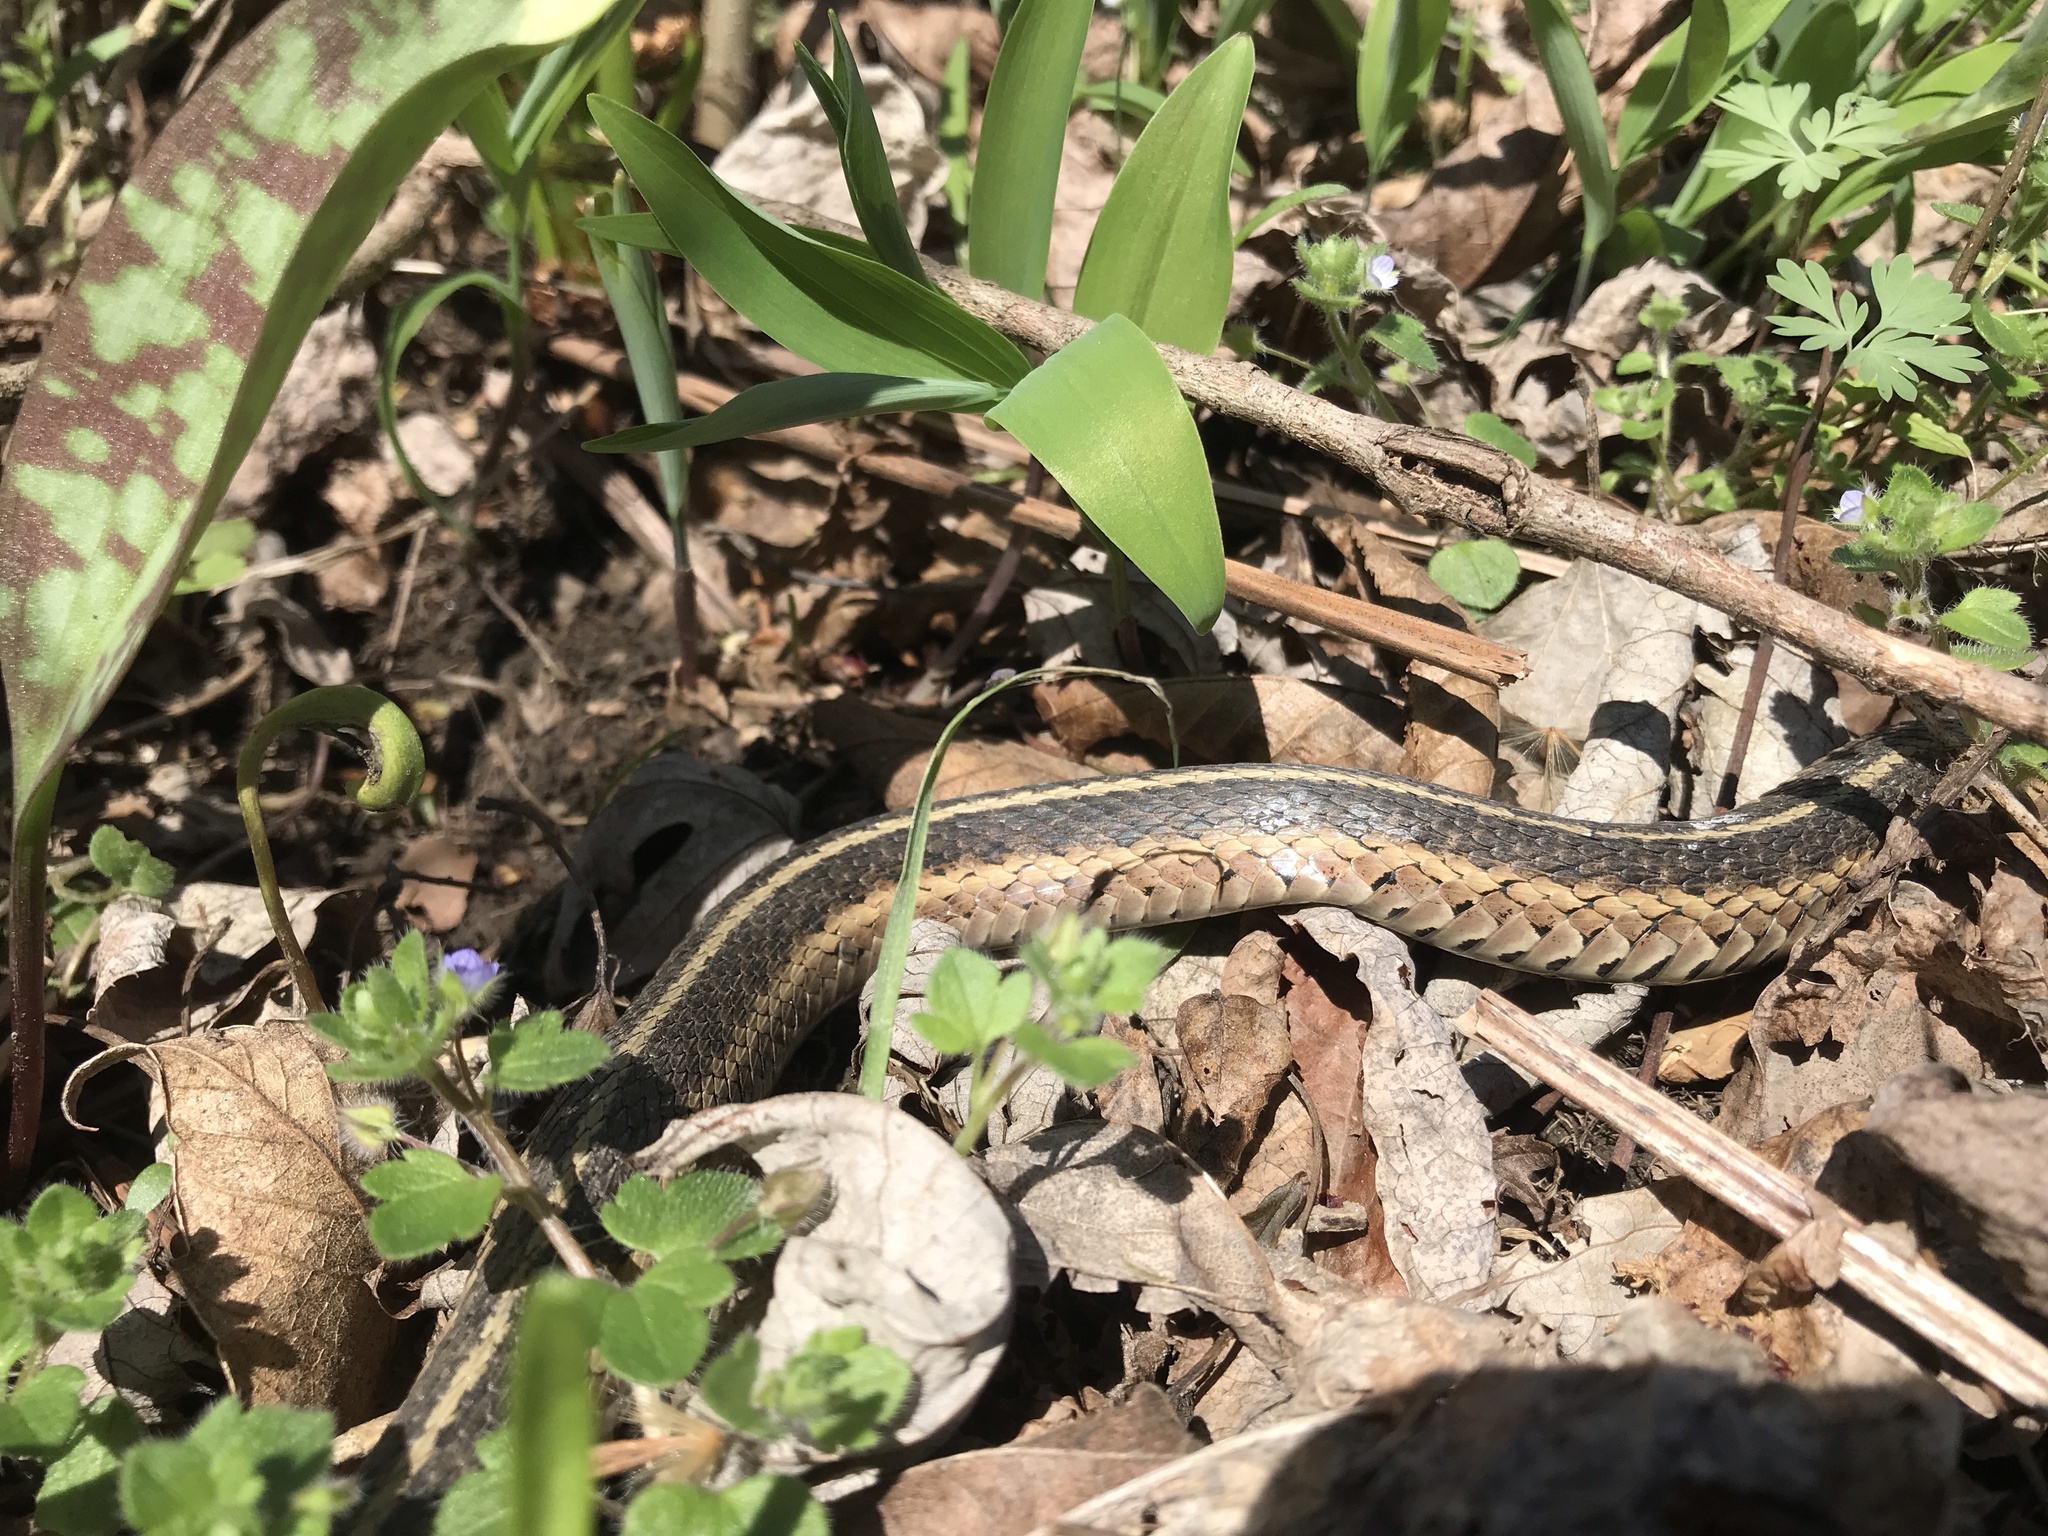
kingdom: Animalia
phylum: Chordata
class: Squamata
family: Colubridae
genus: Thamnophis
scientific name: Thamnophis sirtalis
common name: Common garter snake
